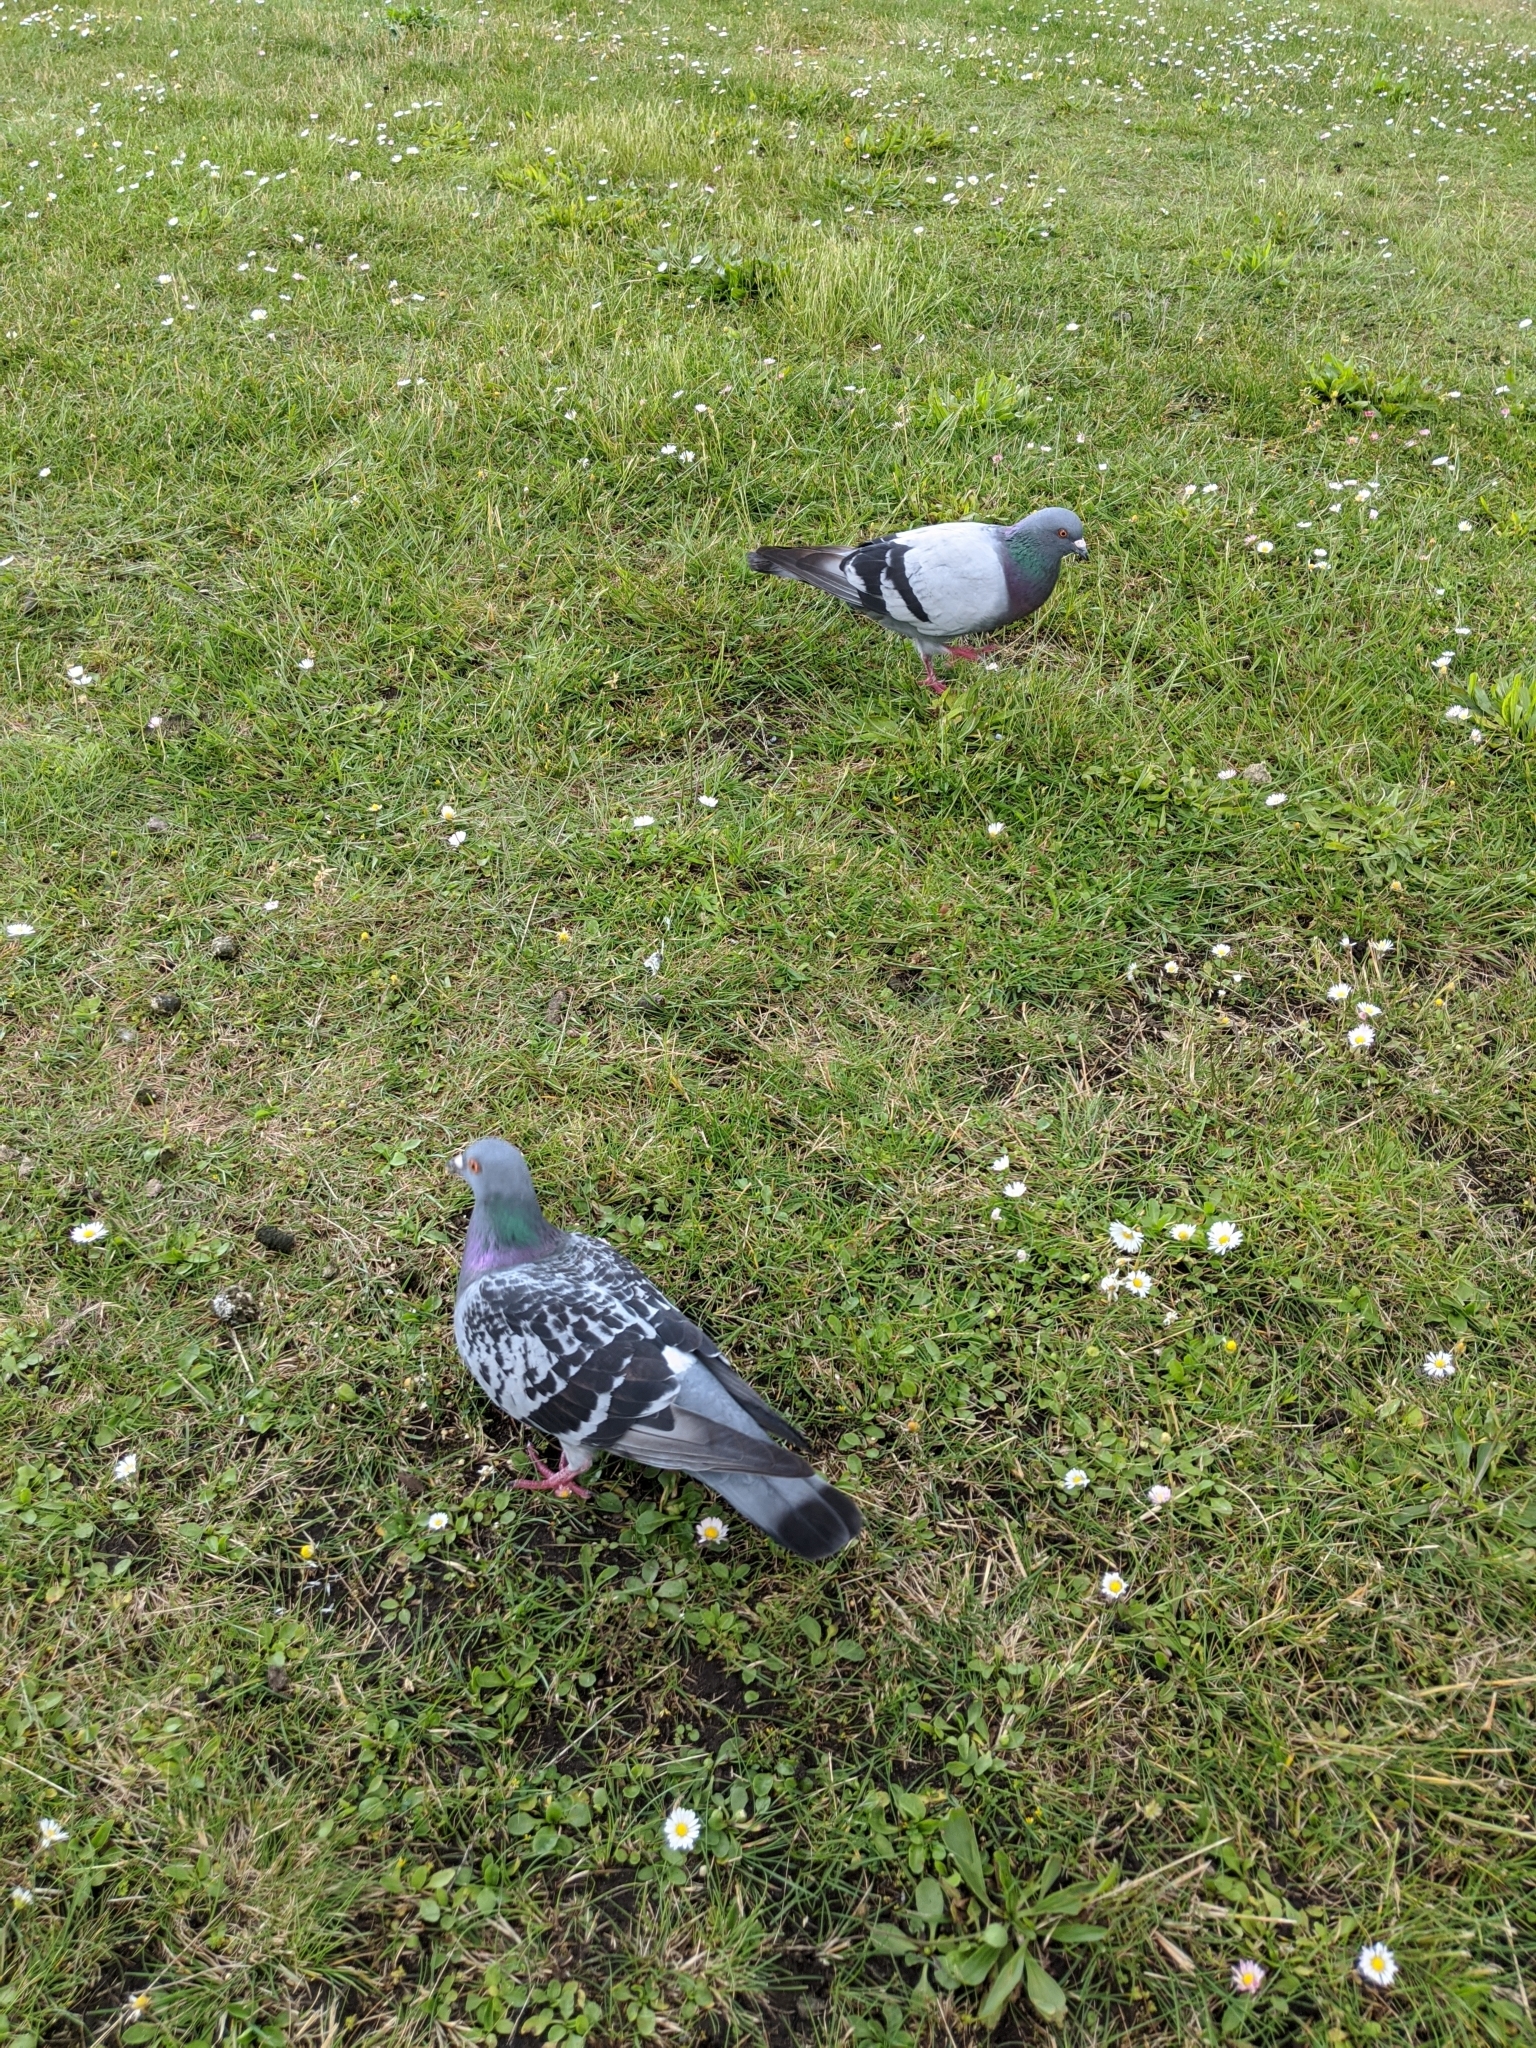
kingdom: Animalia
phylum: Chordata
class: Aves
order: Columbiformes
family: Columbidae
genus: Columba
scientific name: Columba livia
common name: Rock pigeon
